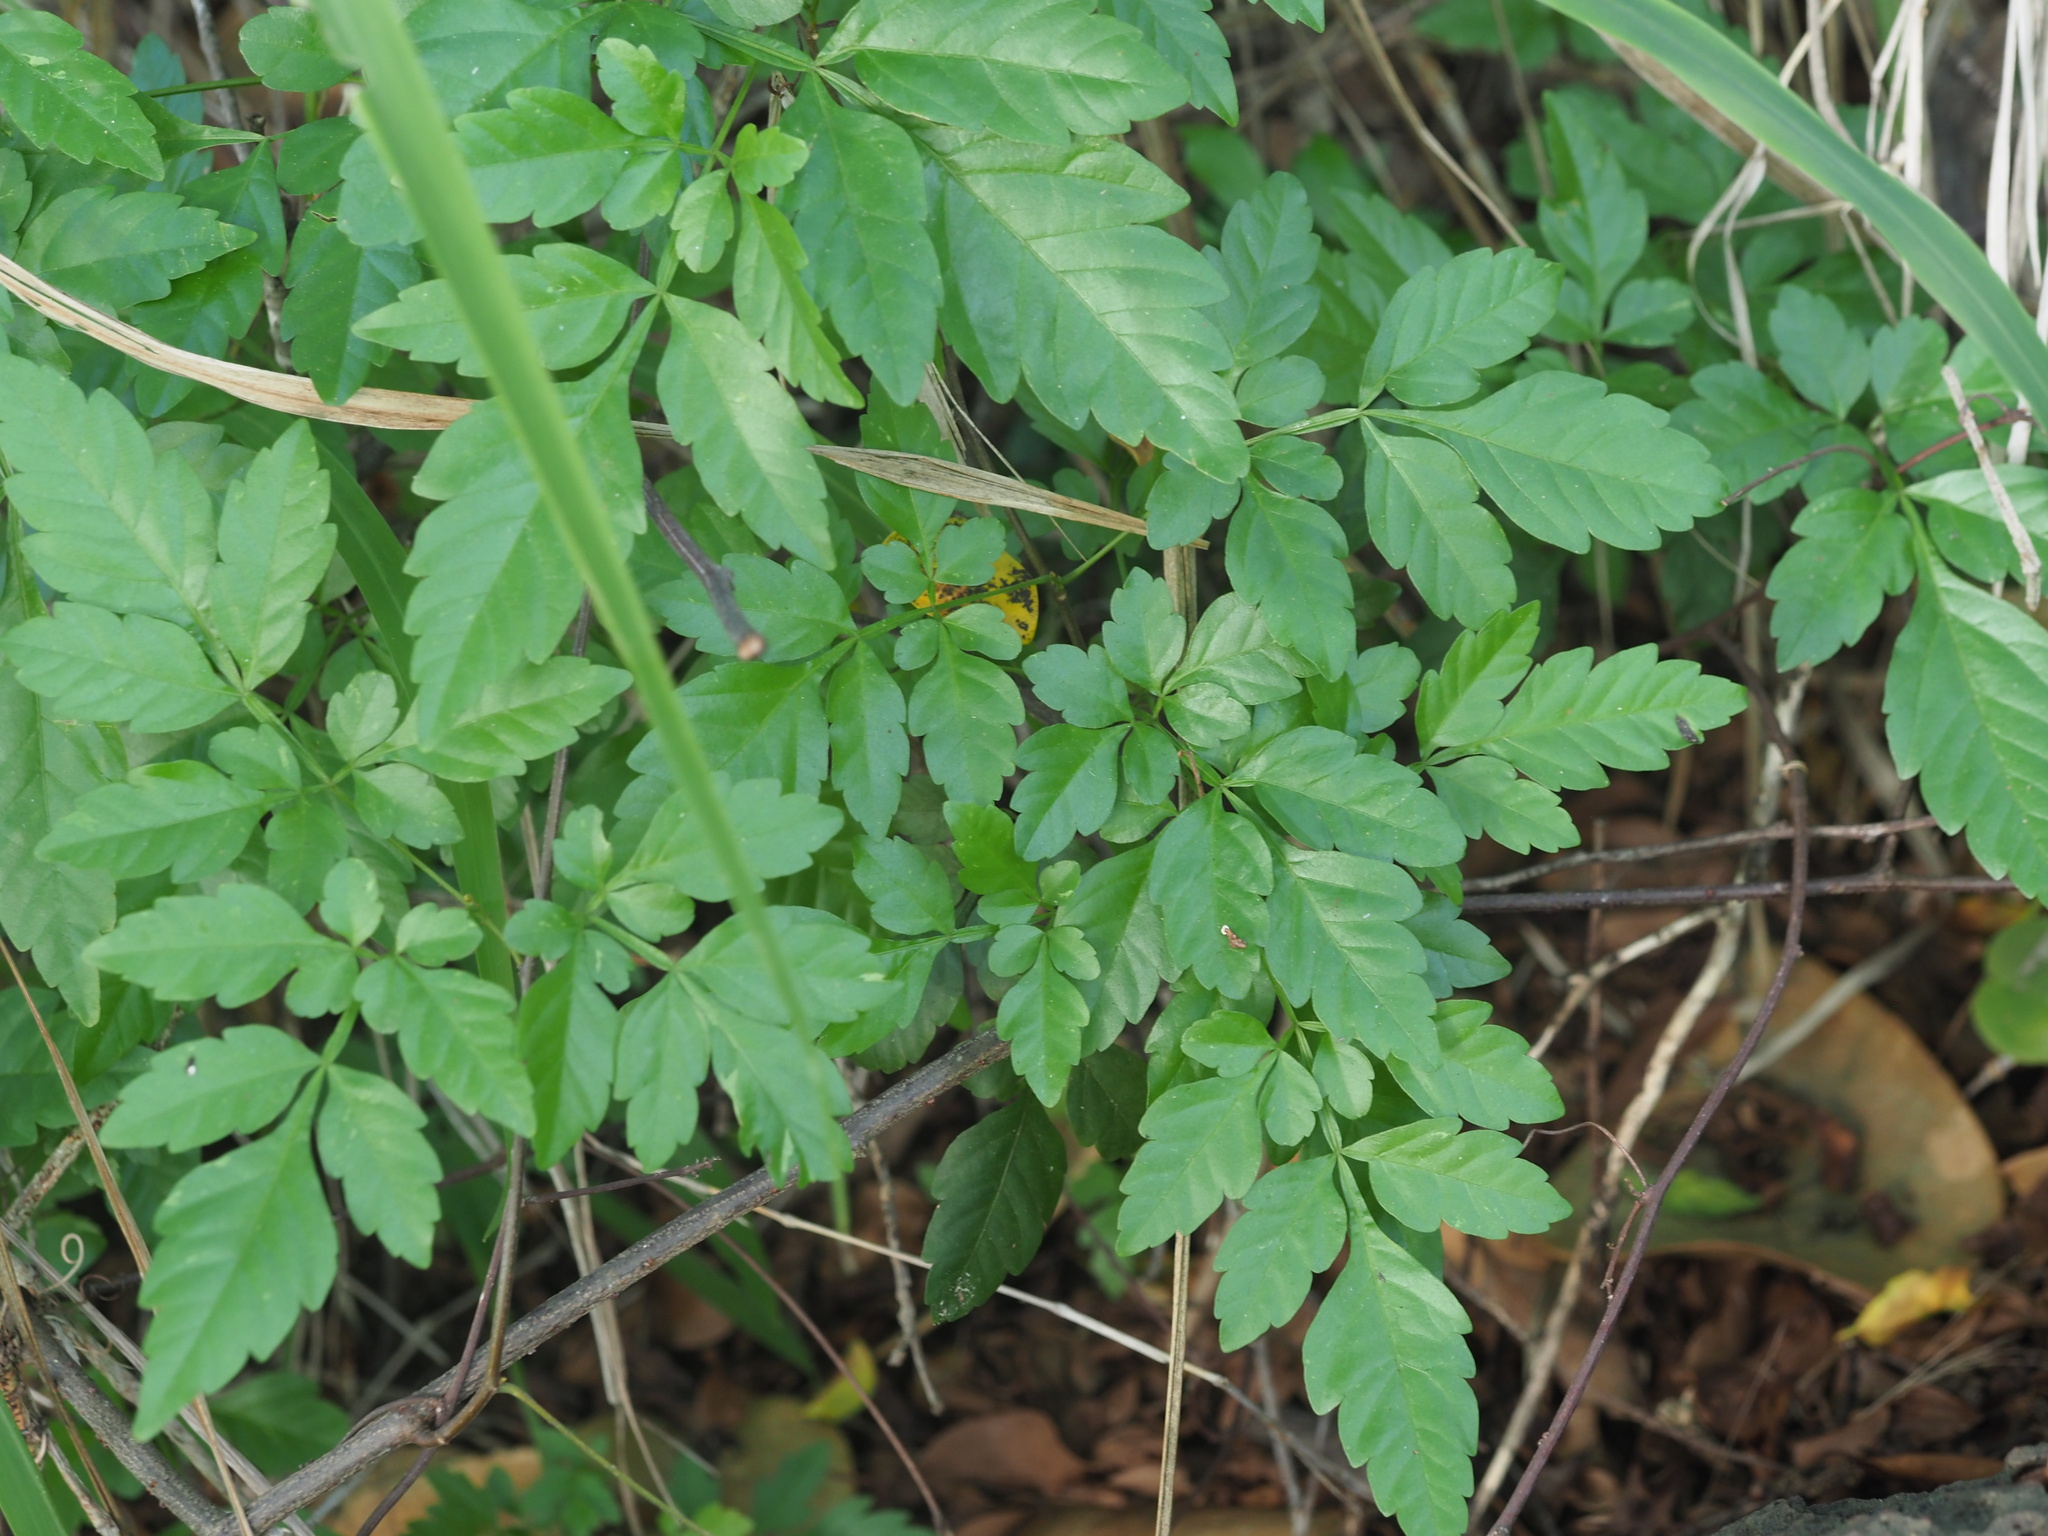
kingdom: Plantae
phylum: Tracheophyta
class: Magnoliopsida
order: Sapindales
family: Sapindaceae
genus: Paullinia
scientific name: Paullinia fuscescens
